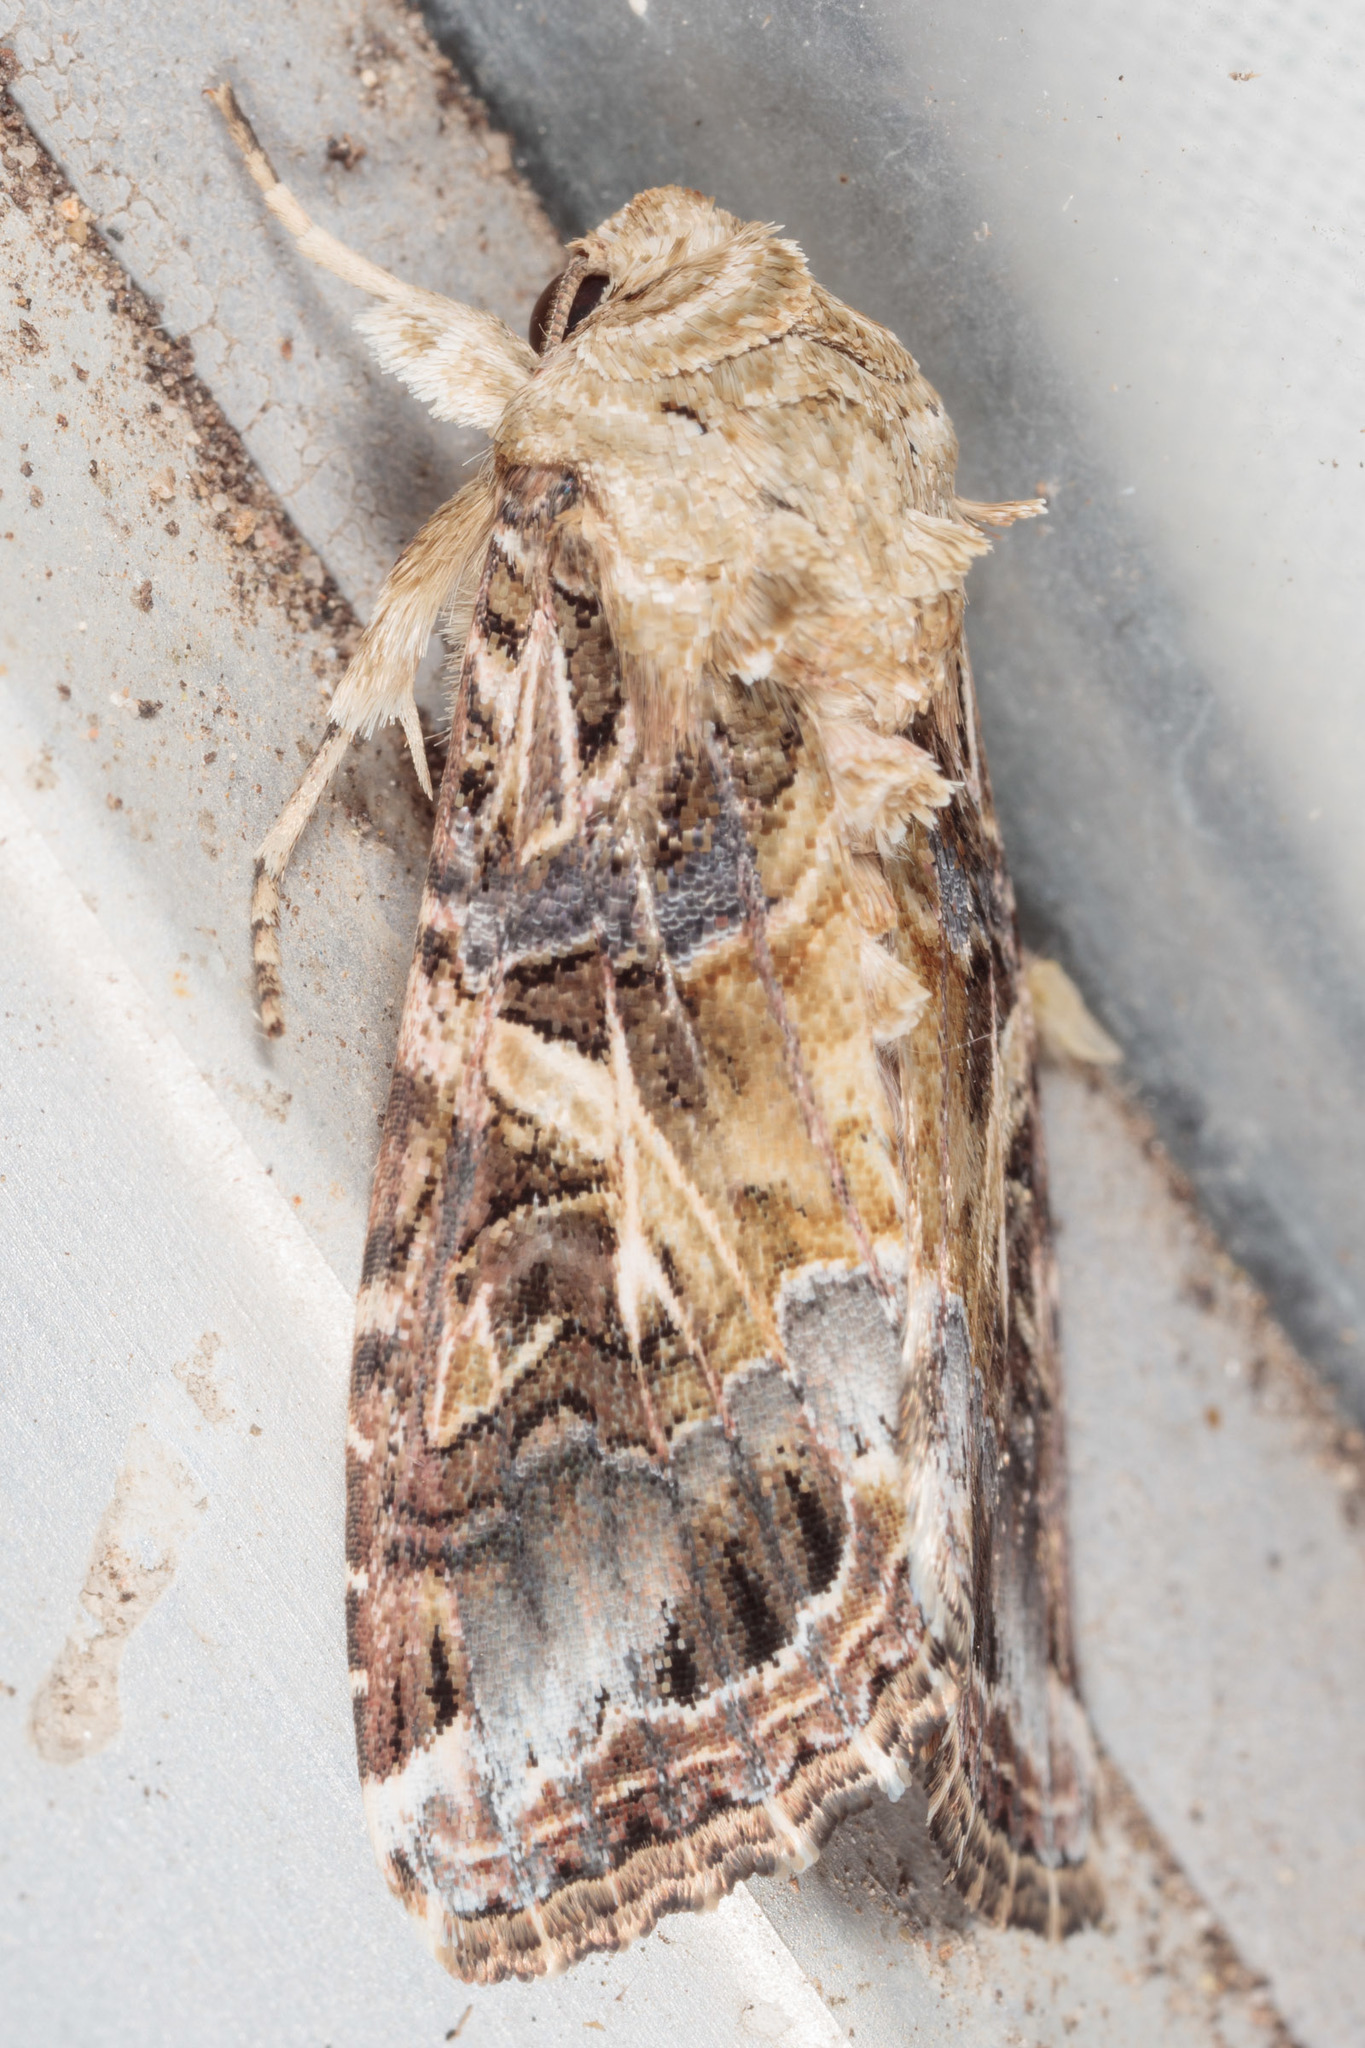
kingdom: Animalia
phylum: Arthropoda
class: Insecta
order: Lepidoptera
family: Noctuidae
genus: Spodoptera
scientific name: Spodoptera ornithogalli
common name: Yellow-striped armyworm
